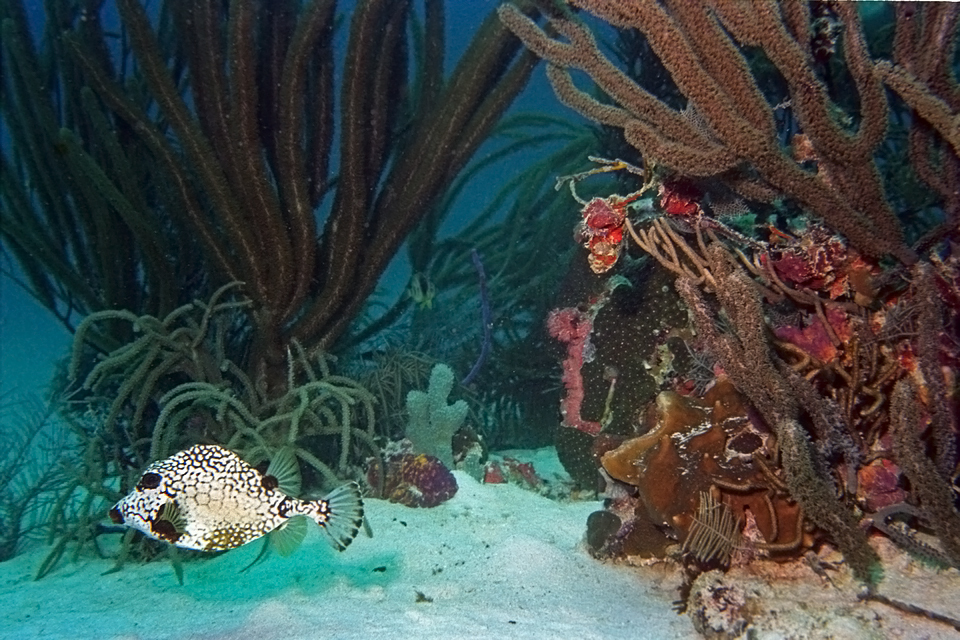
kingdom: Animalia
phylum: Chordata
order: Tetraodontiformes
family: Ostraciidae
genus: Lactophrys
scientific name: Lactophrys triqueter
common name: Smooth trunkfish
